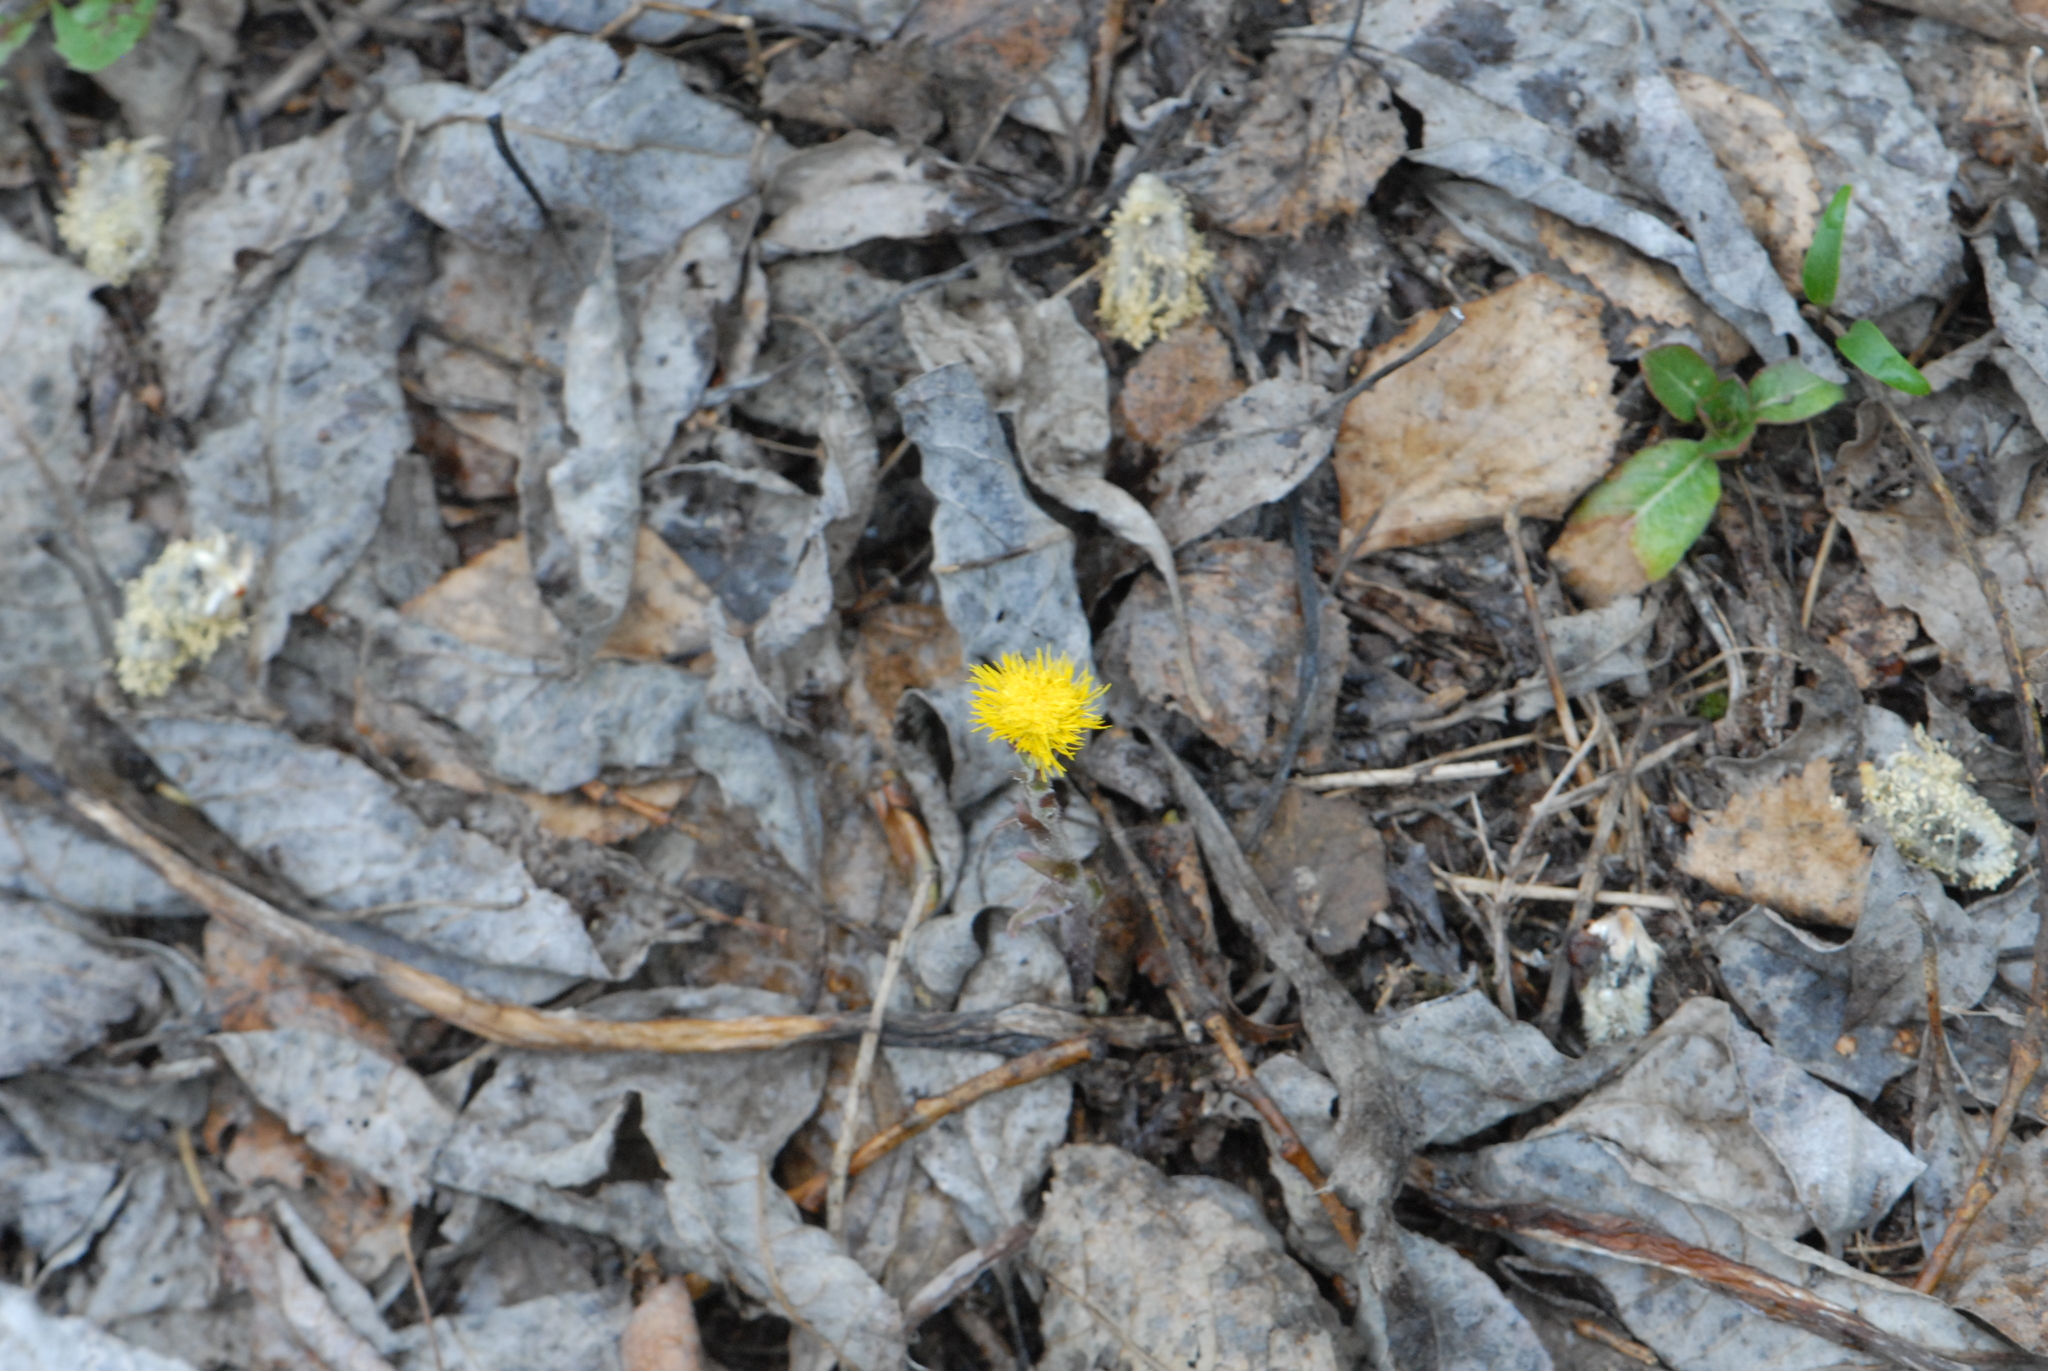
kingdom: Plantae
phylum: Tracheophyta
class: Magnoliopsida
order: Asterales
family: Asteraceae
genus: Tussilago
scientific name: Tussilago farfara
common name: Coltsfoot
